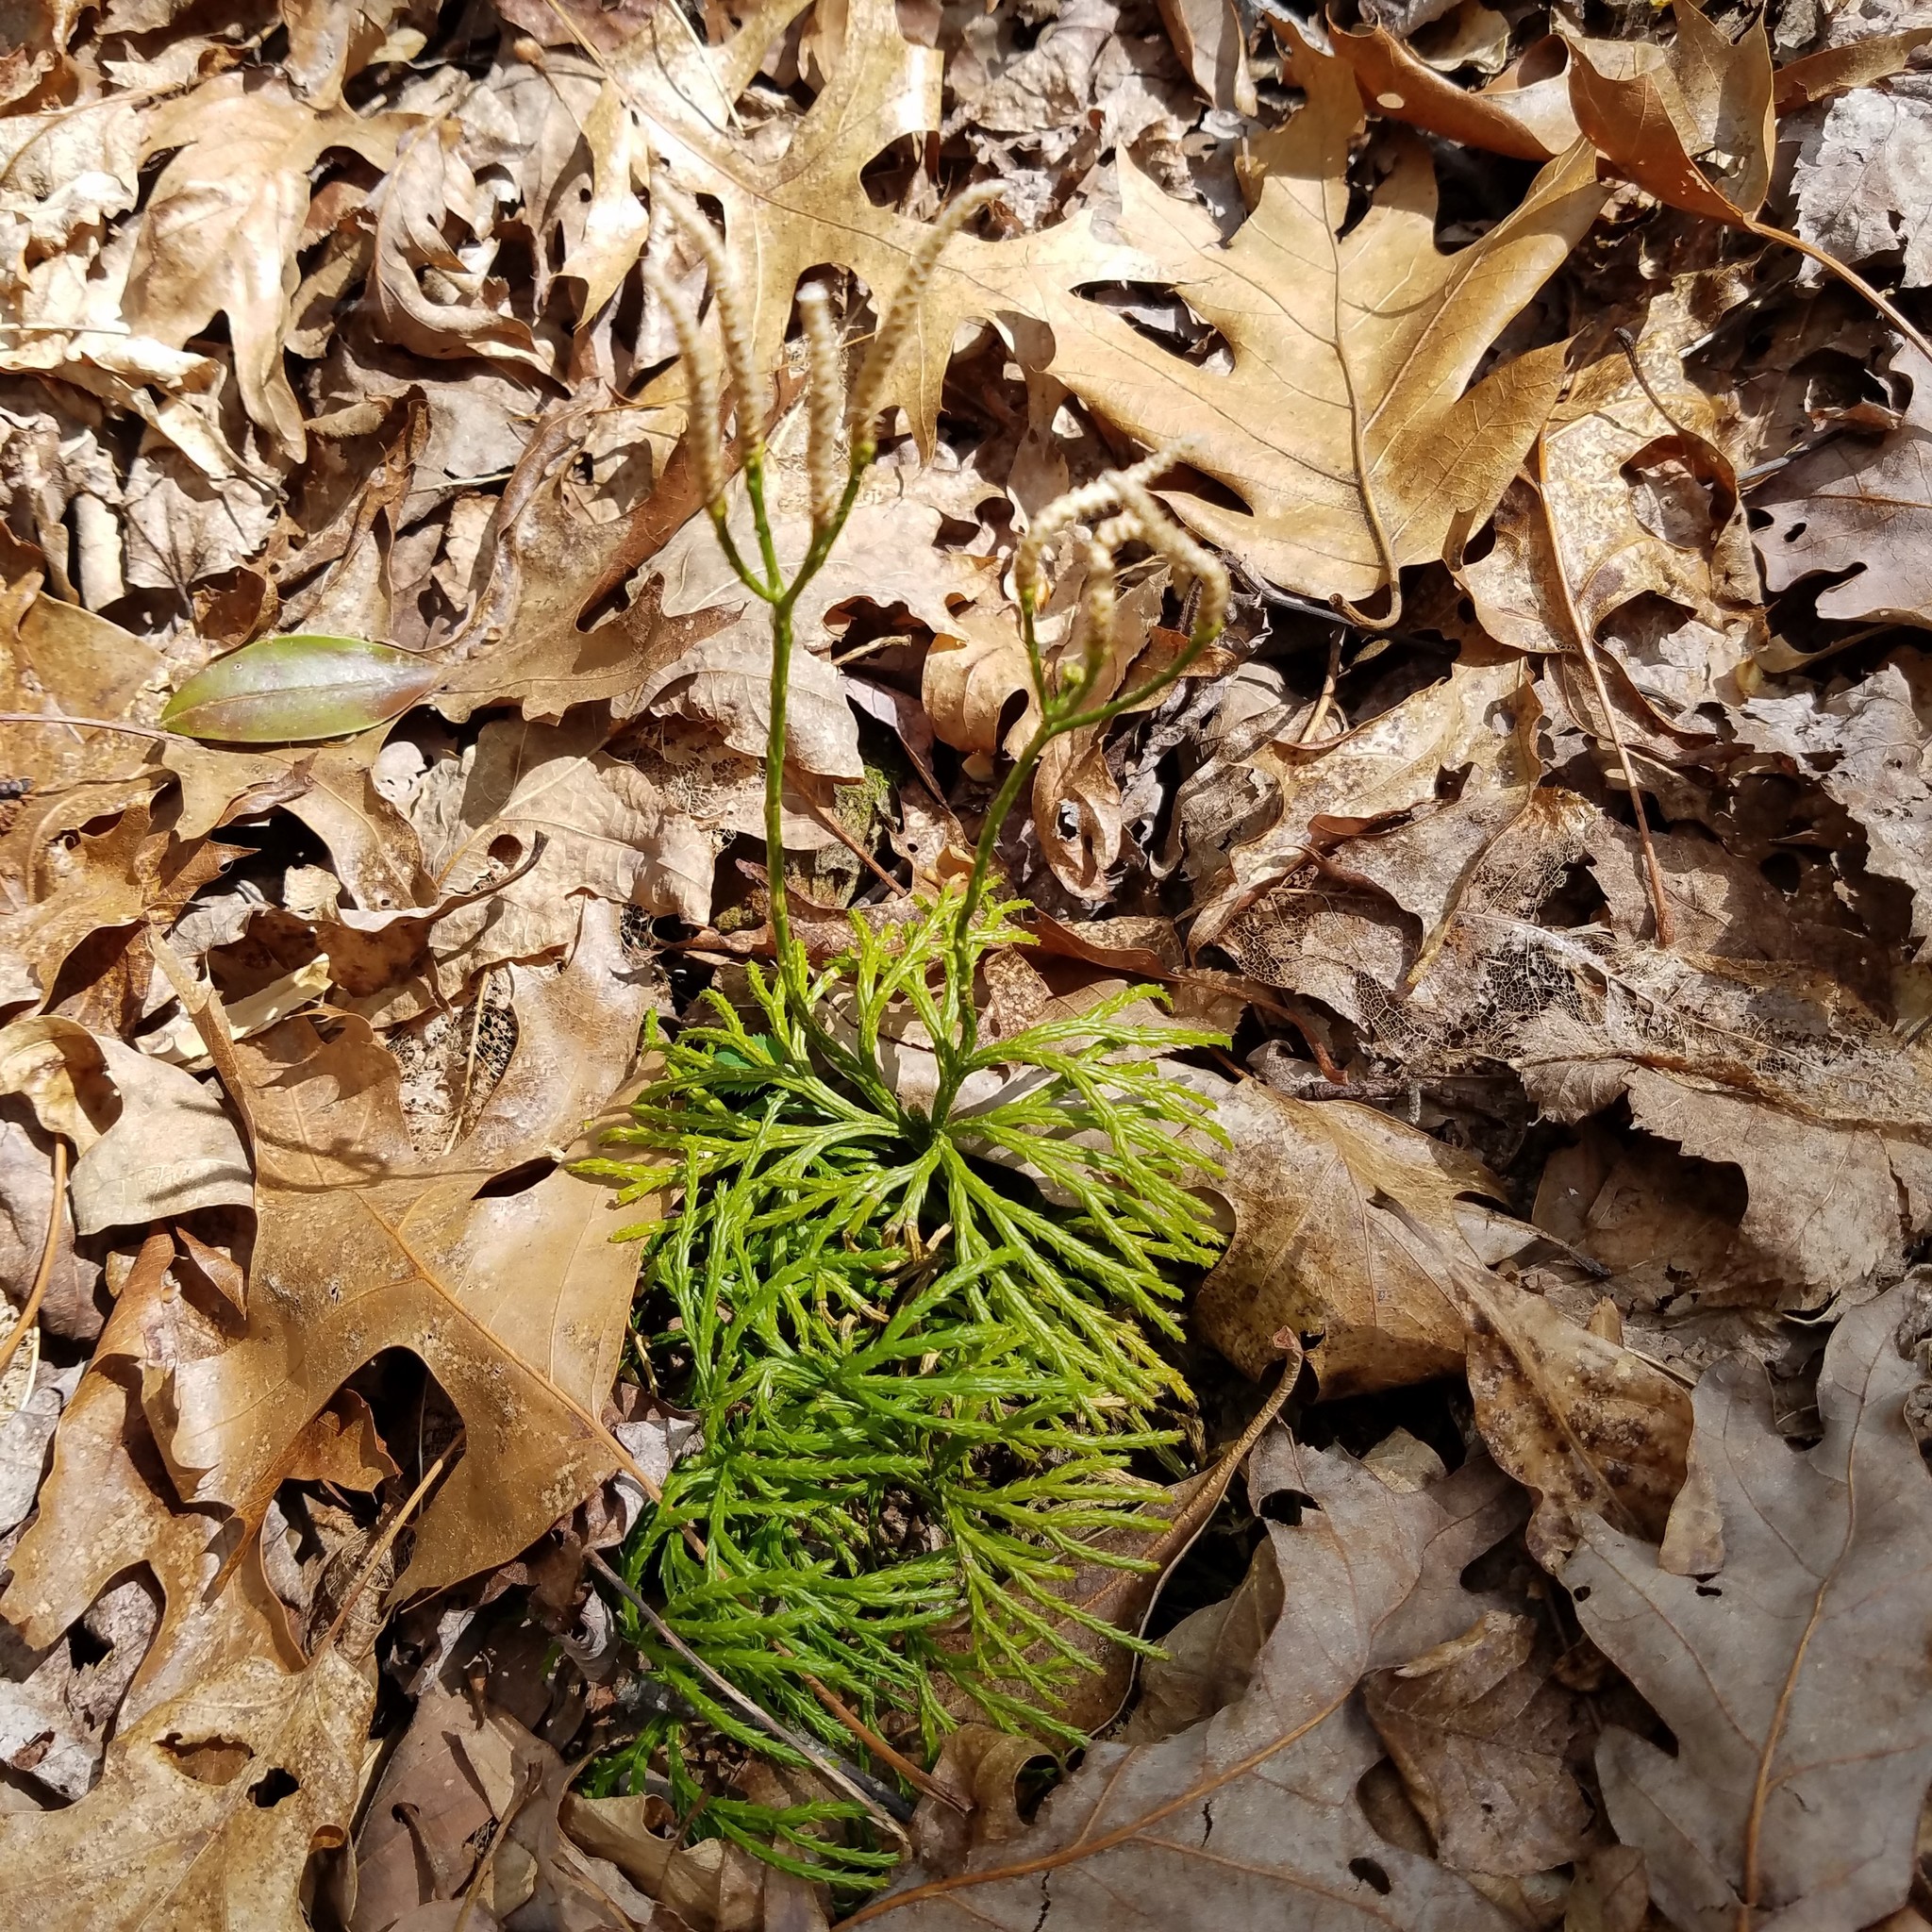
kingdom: Plantae
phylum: Tracheophyta
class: Lycopodiopsida
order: Lycopodiales
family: Lycopodiaceae
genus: Diphasiastrum
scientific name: Diphasiastrum digitatum
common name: Southern running-pine
